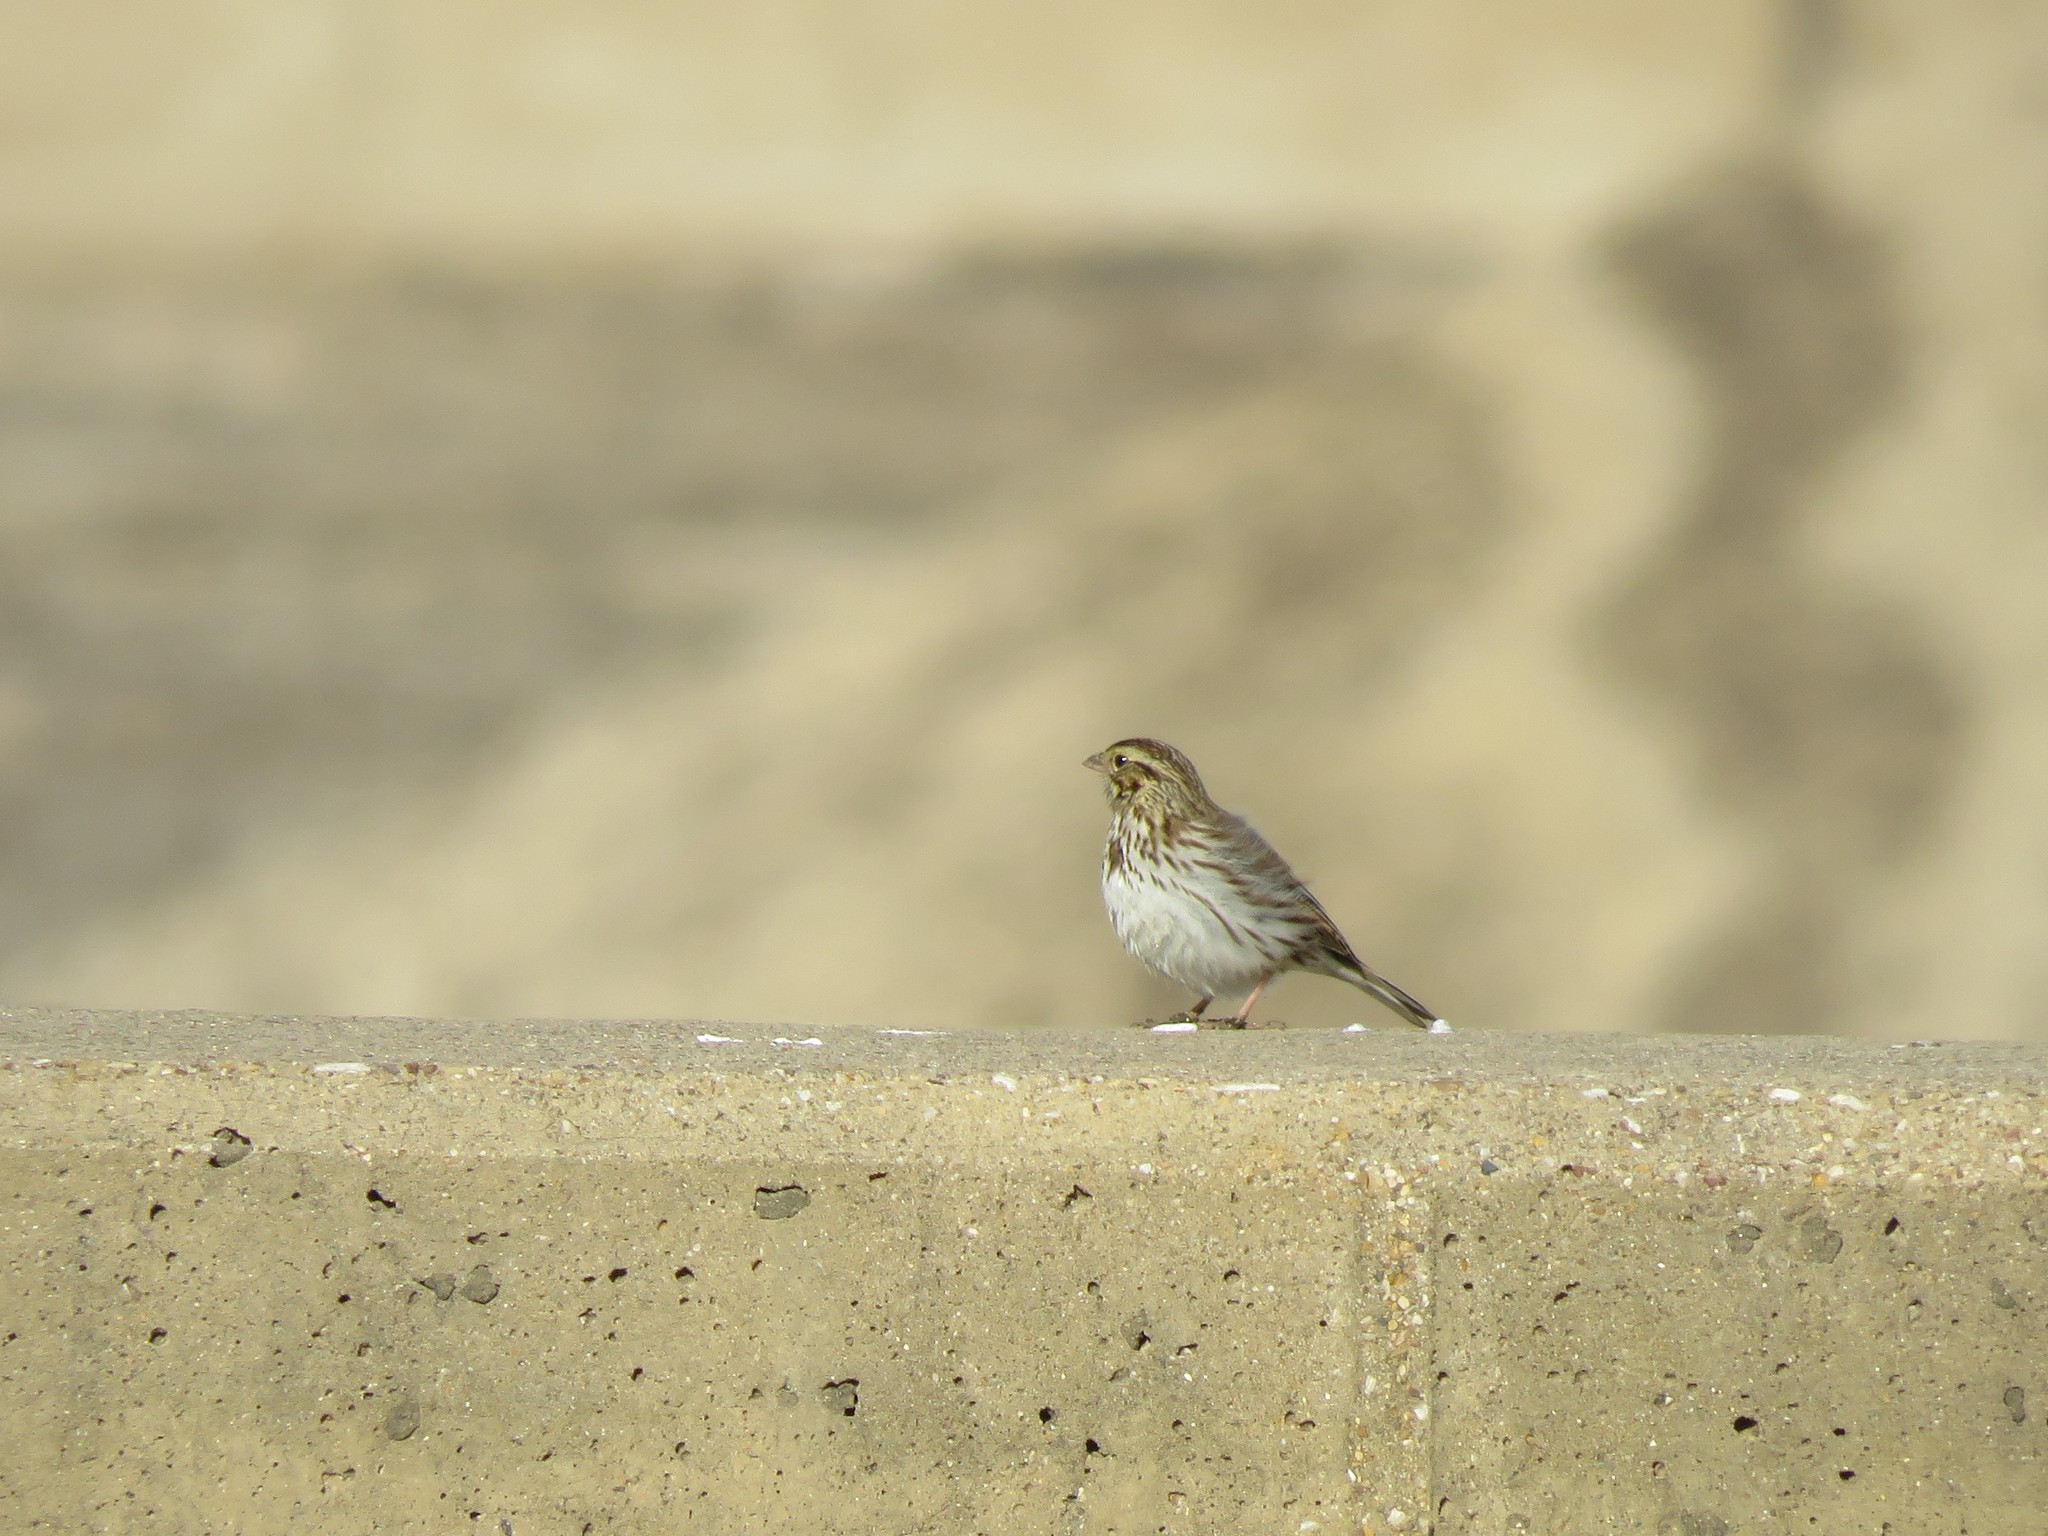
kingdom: Animalia
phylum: Chordata
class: Aves
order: Passeriformes
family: Passerellidae
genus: Passerculus
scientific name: Passerculus sandwichensis
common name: Savannah sparrow
